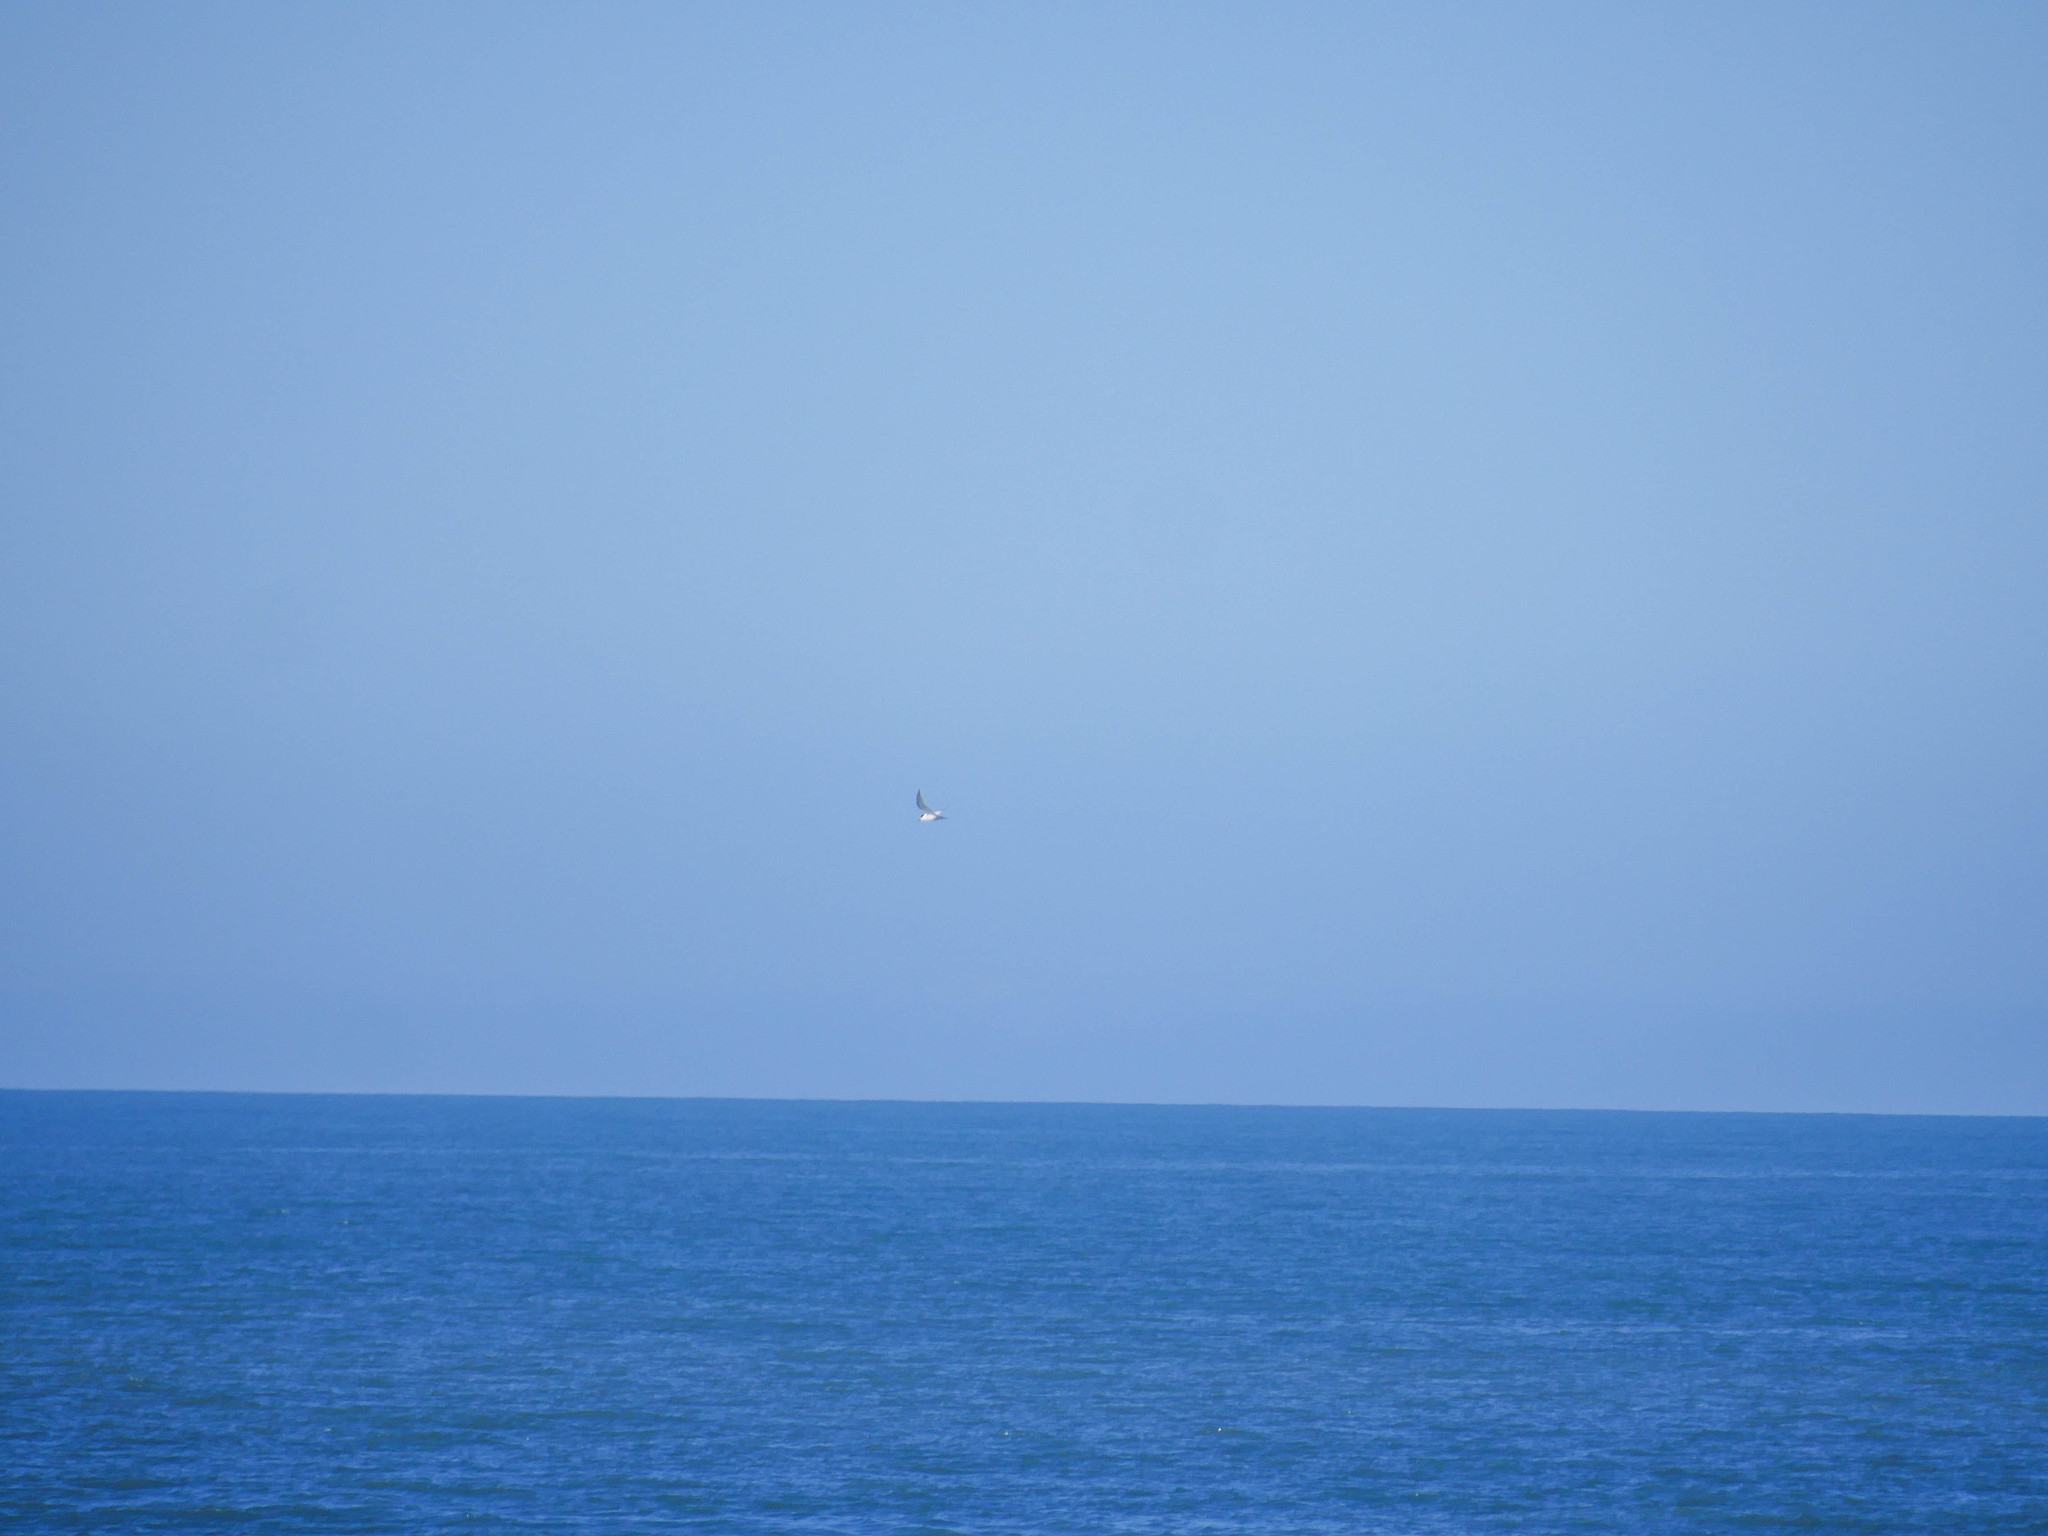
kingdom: Animalia
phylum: Chordata
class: Aves
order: Charadriiformes
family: Laridae
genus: Sterna
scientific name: Sterna striata
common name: White-fronted tern
